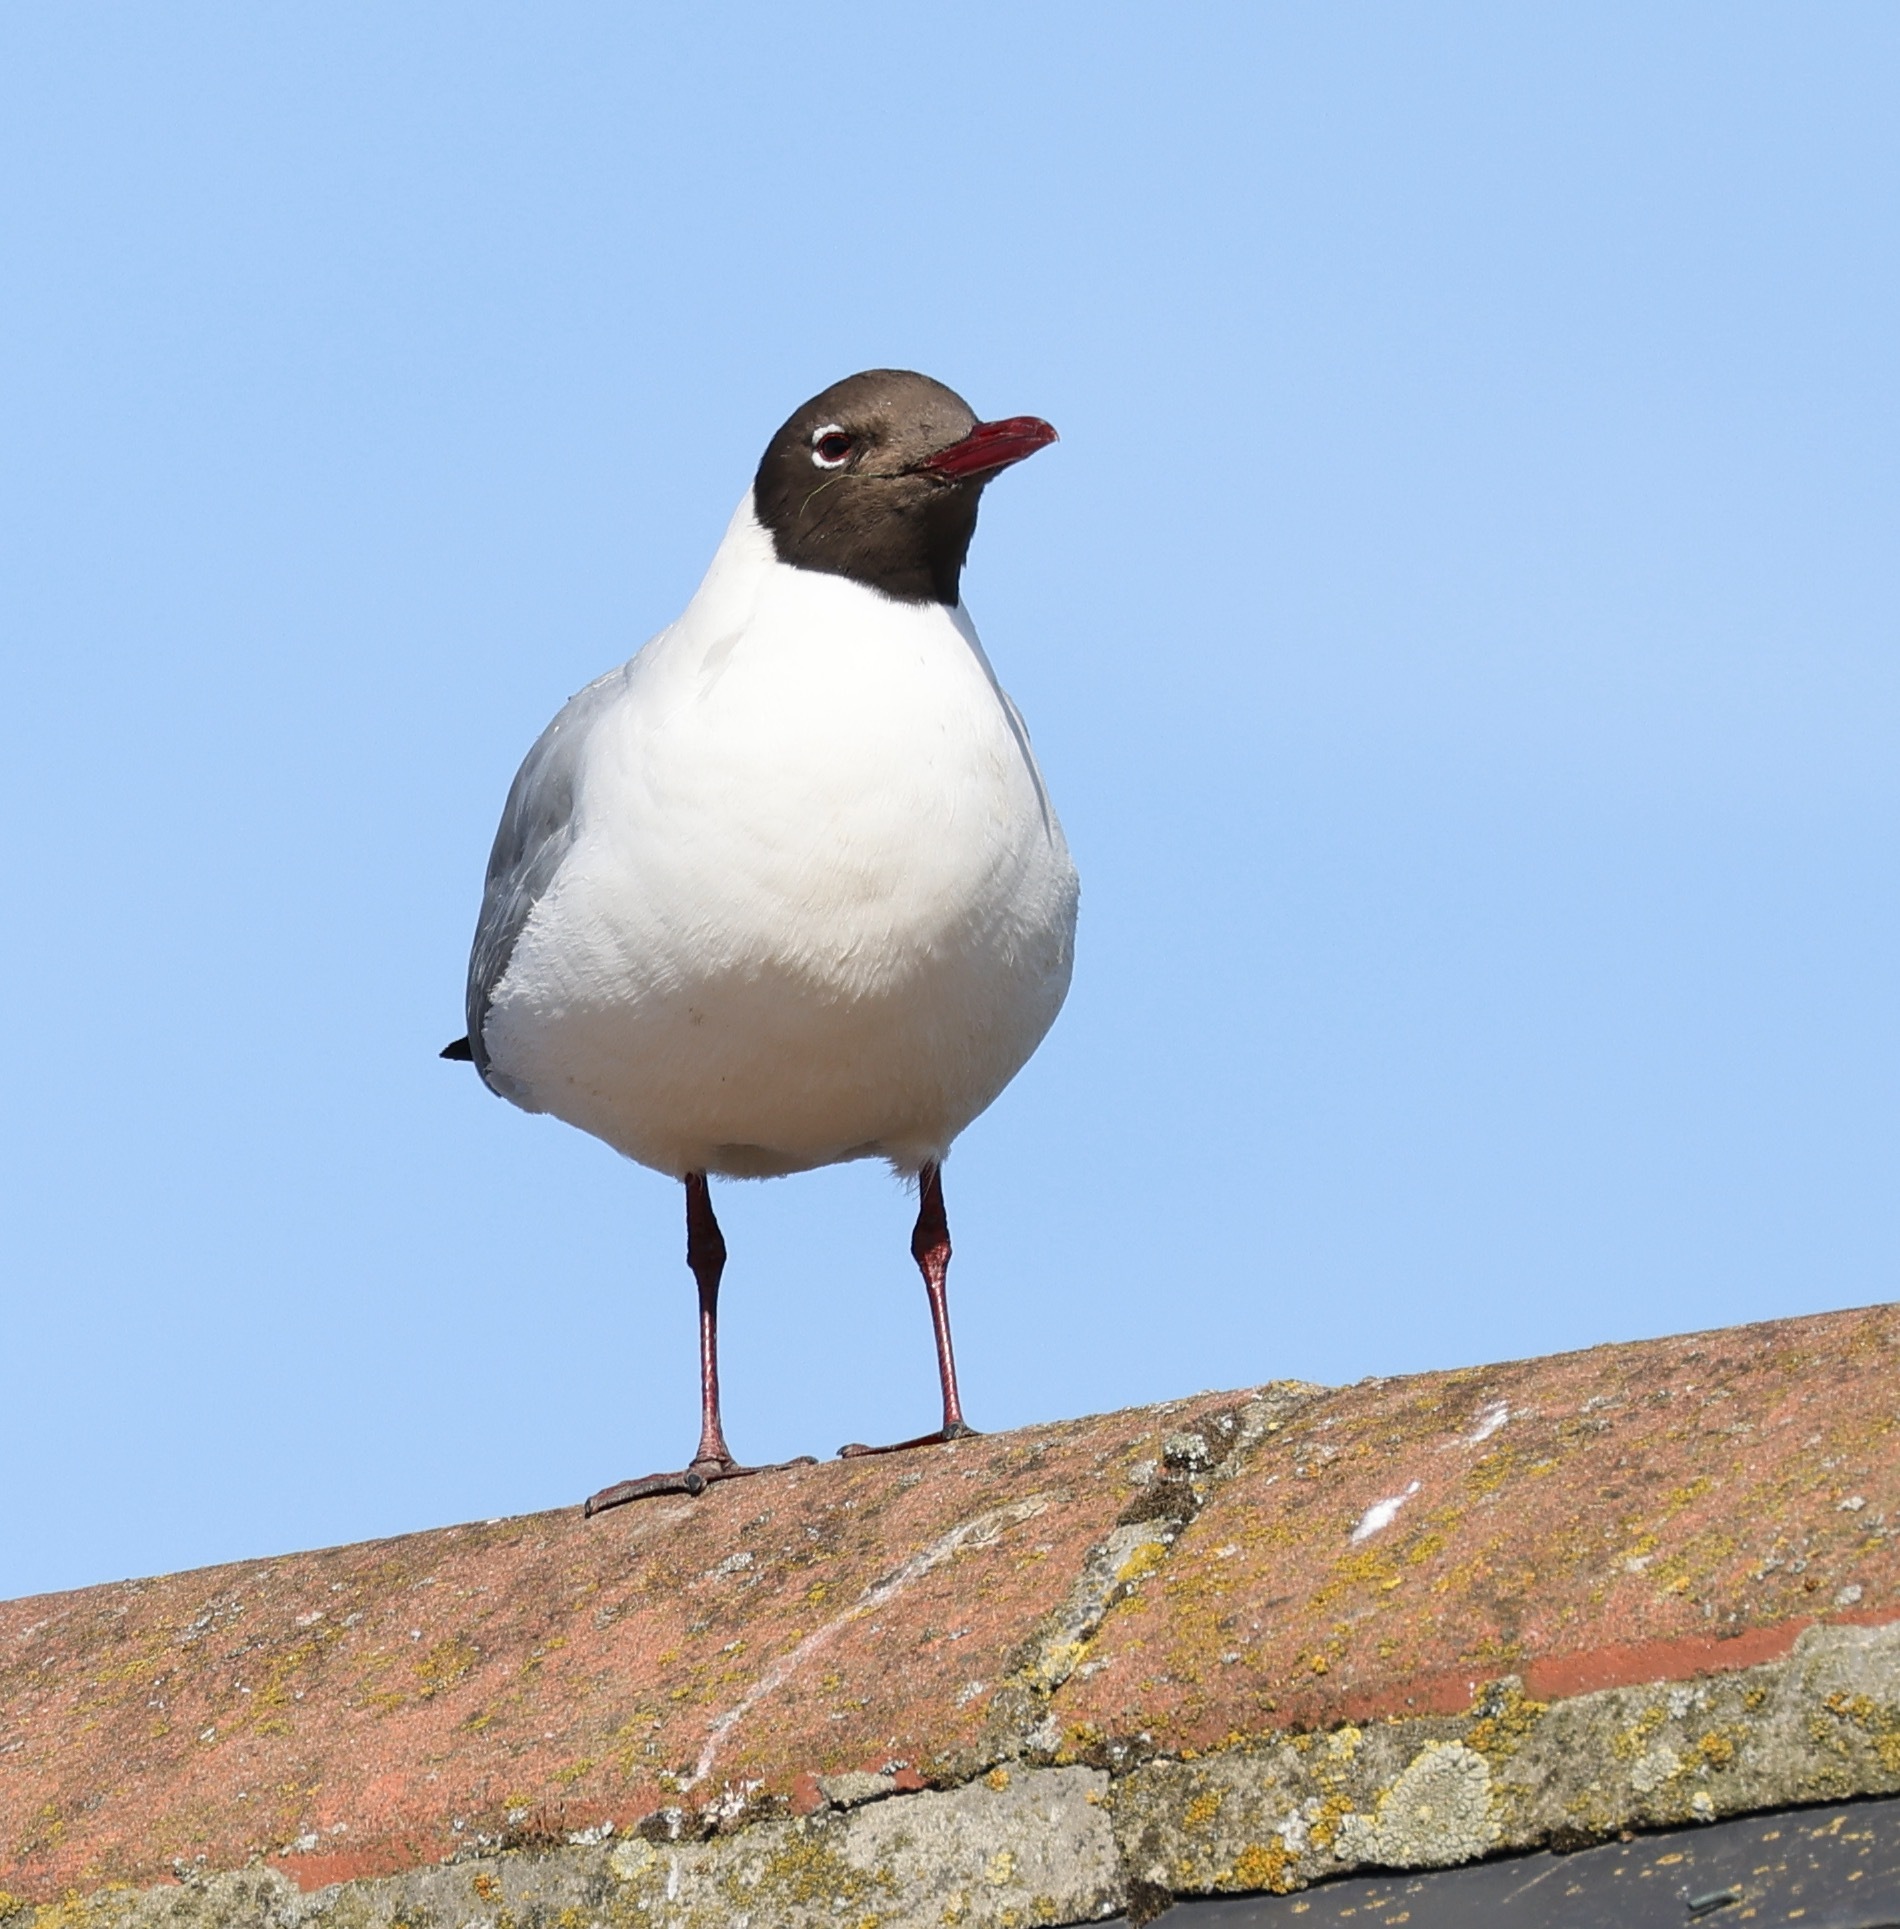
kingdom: Animalia
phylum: Chordata
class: Aves
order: Charadriiformes
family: Laridae
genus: Chroicocephalus
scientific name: Chroicocephalus ridibundus
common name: Black-headed gull
